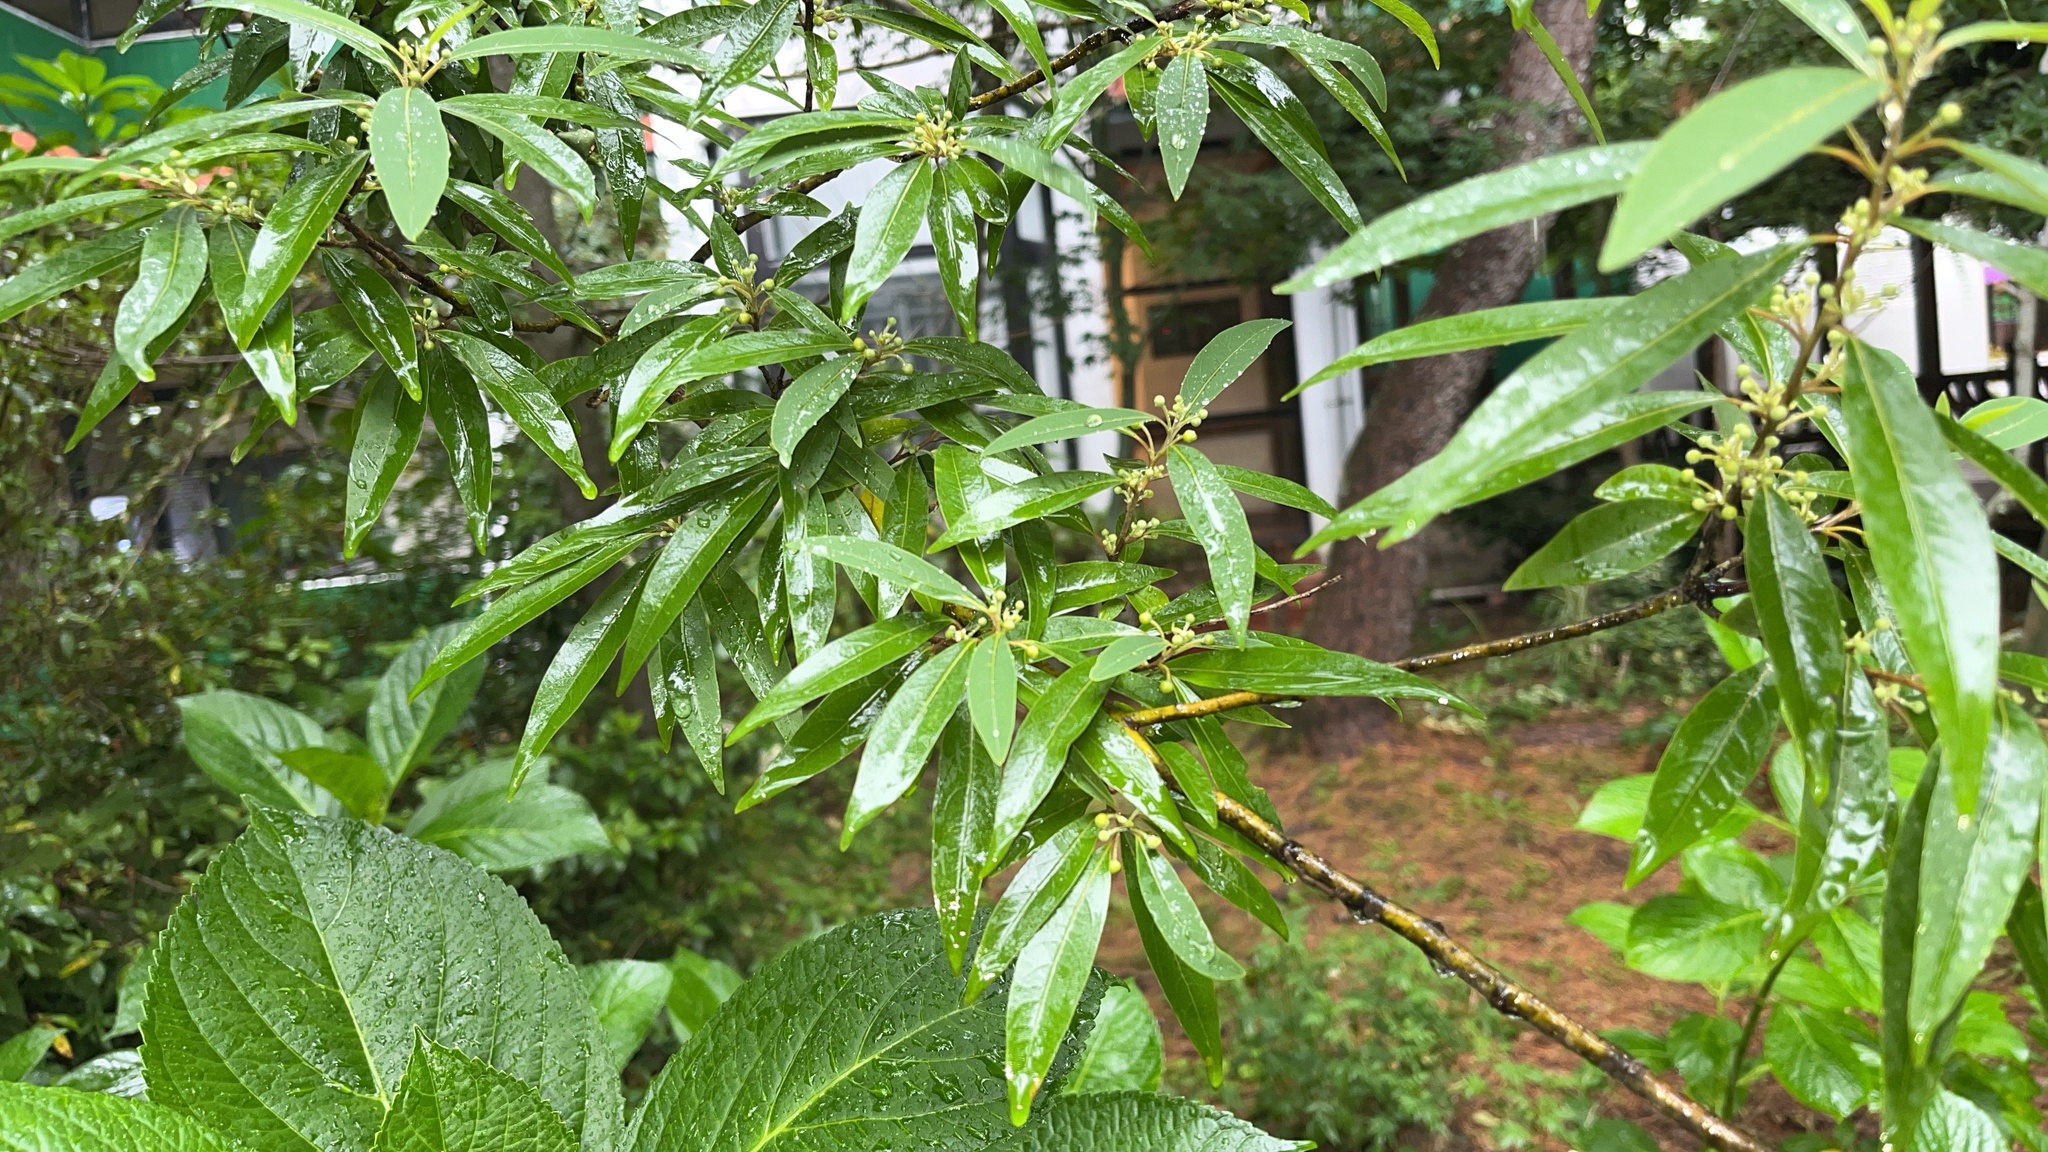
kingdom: Plantae
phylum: Tracheophyta
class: Magnoliopsida
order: Laurales
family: Lauraceae
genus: Litsea
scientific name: Litsea cubeba
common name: Mountain-pepper
